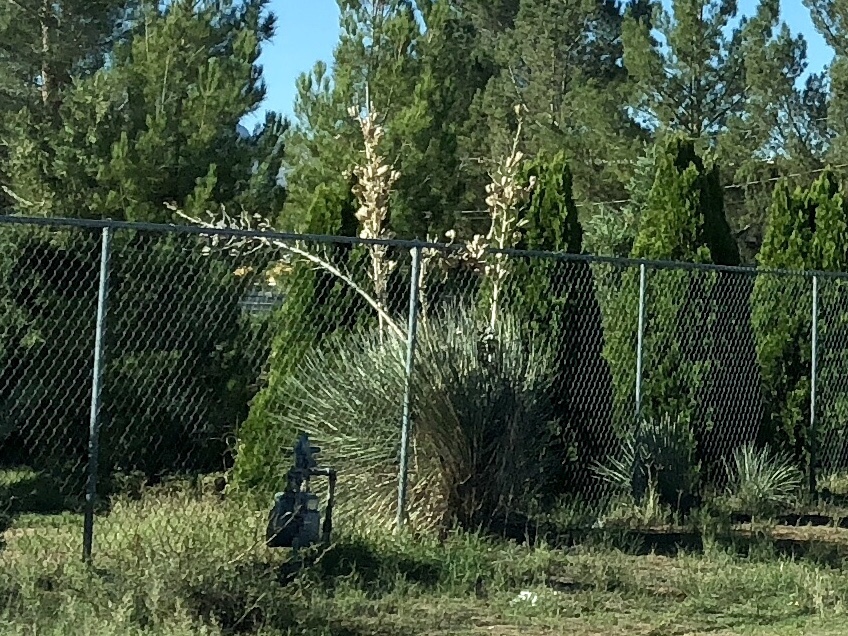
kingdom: Plantae
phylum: Tracheophyta
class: Liliopsida
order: Asparagales
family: Asparagaceae
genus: Yucca
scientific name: Yucca elata
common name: Palmella
